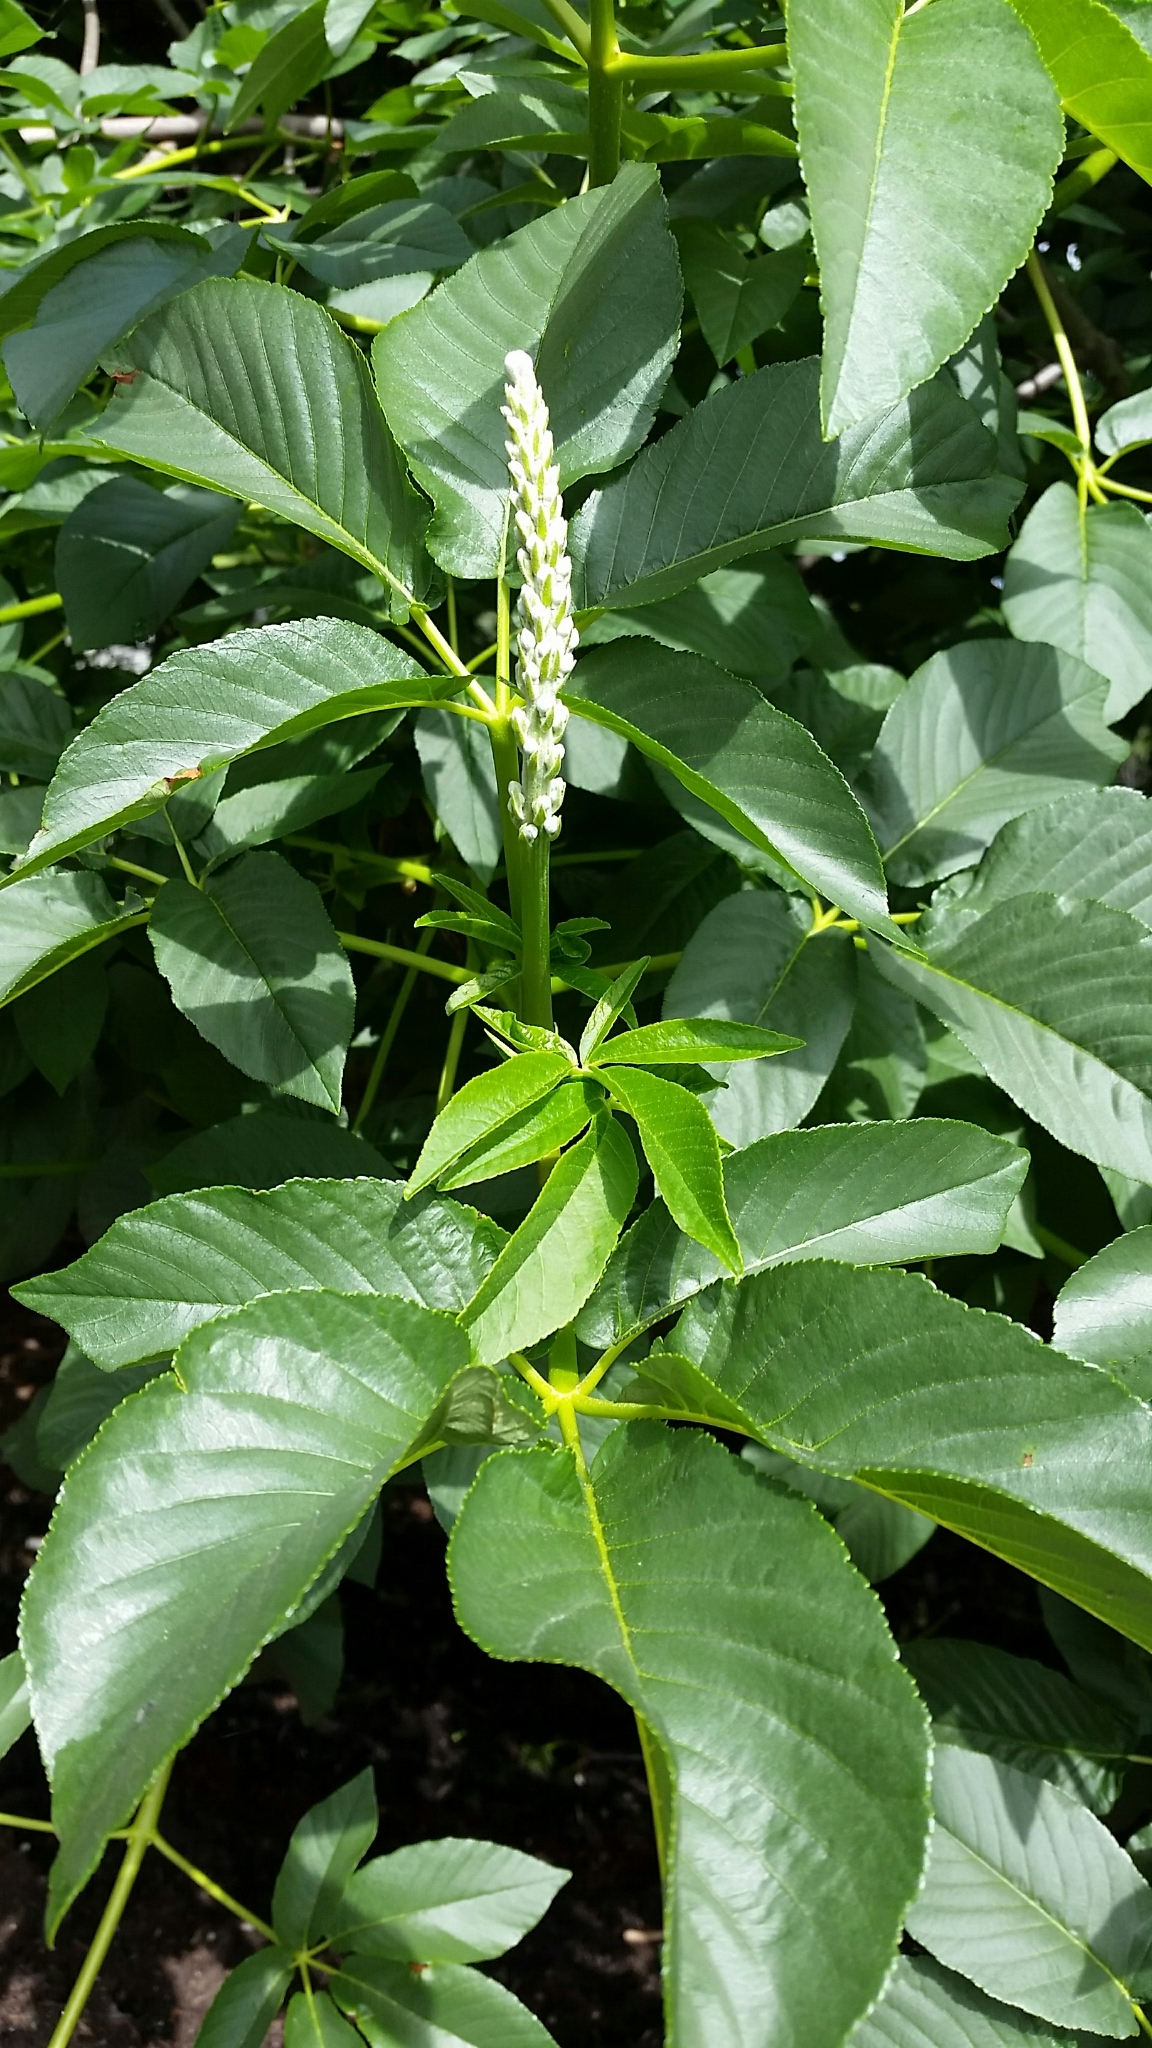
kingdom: Plantae
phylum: Tracheophyta
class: Magnoliopsida
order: Sapindales
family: Sapindaceae
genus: Aesculus
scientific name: Aesculus californica
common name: California buckeye
